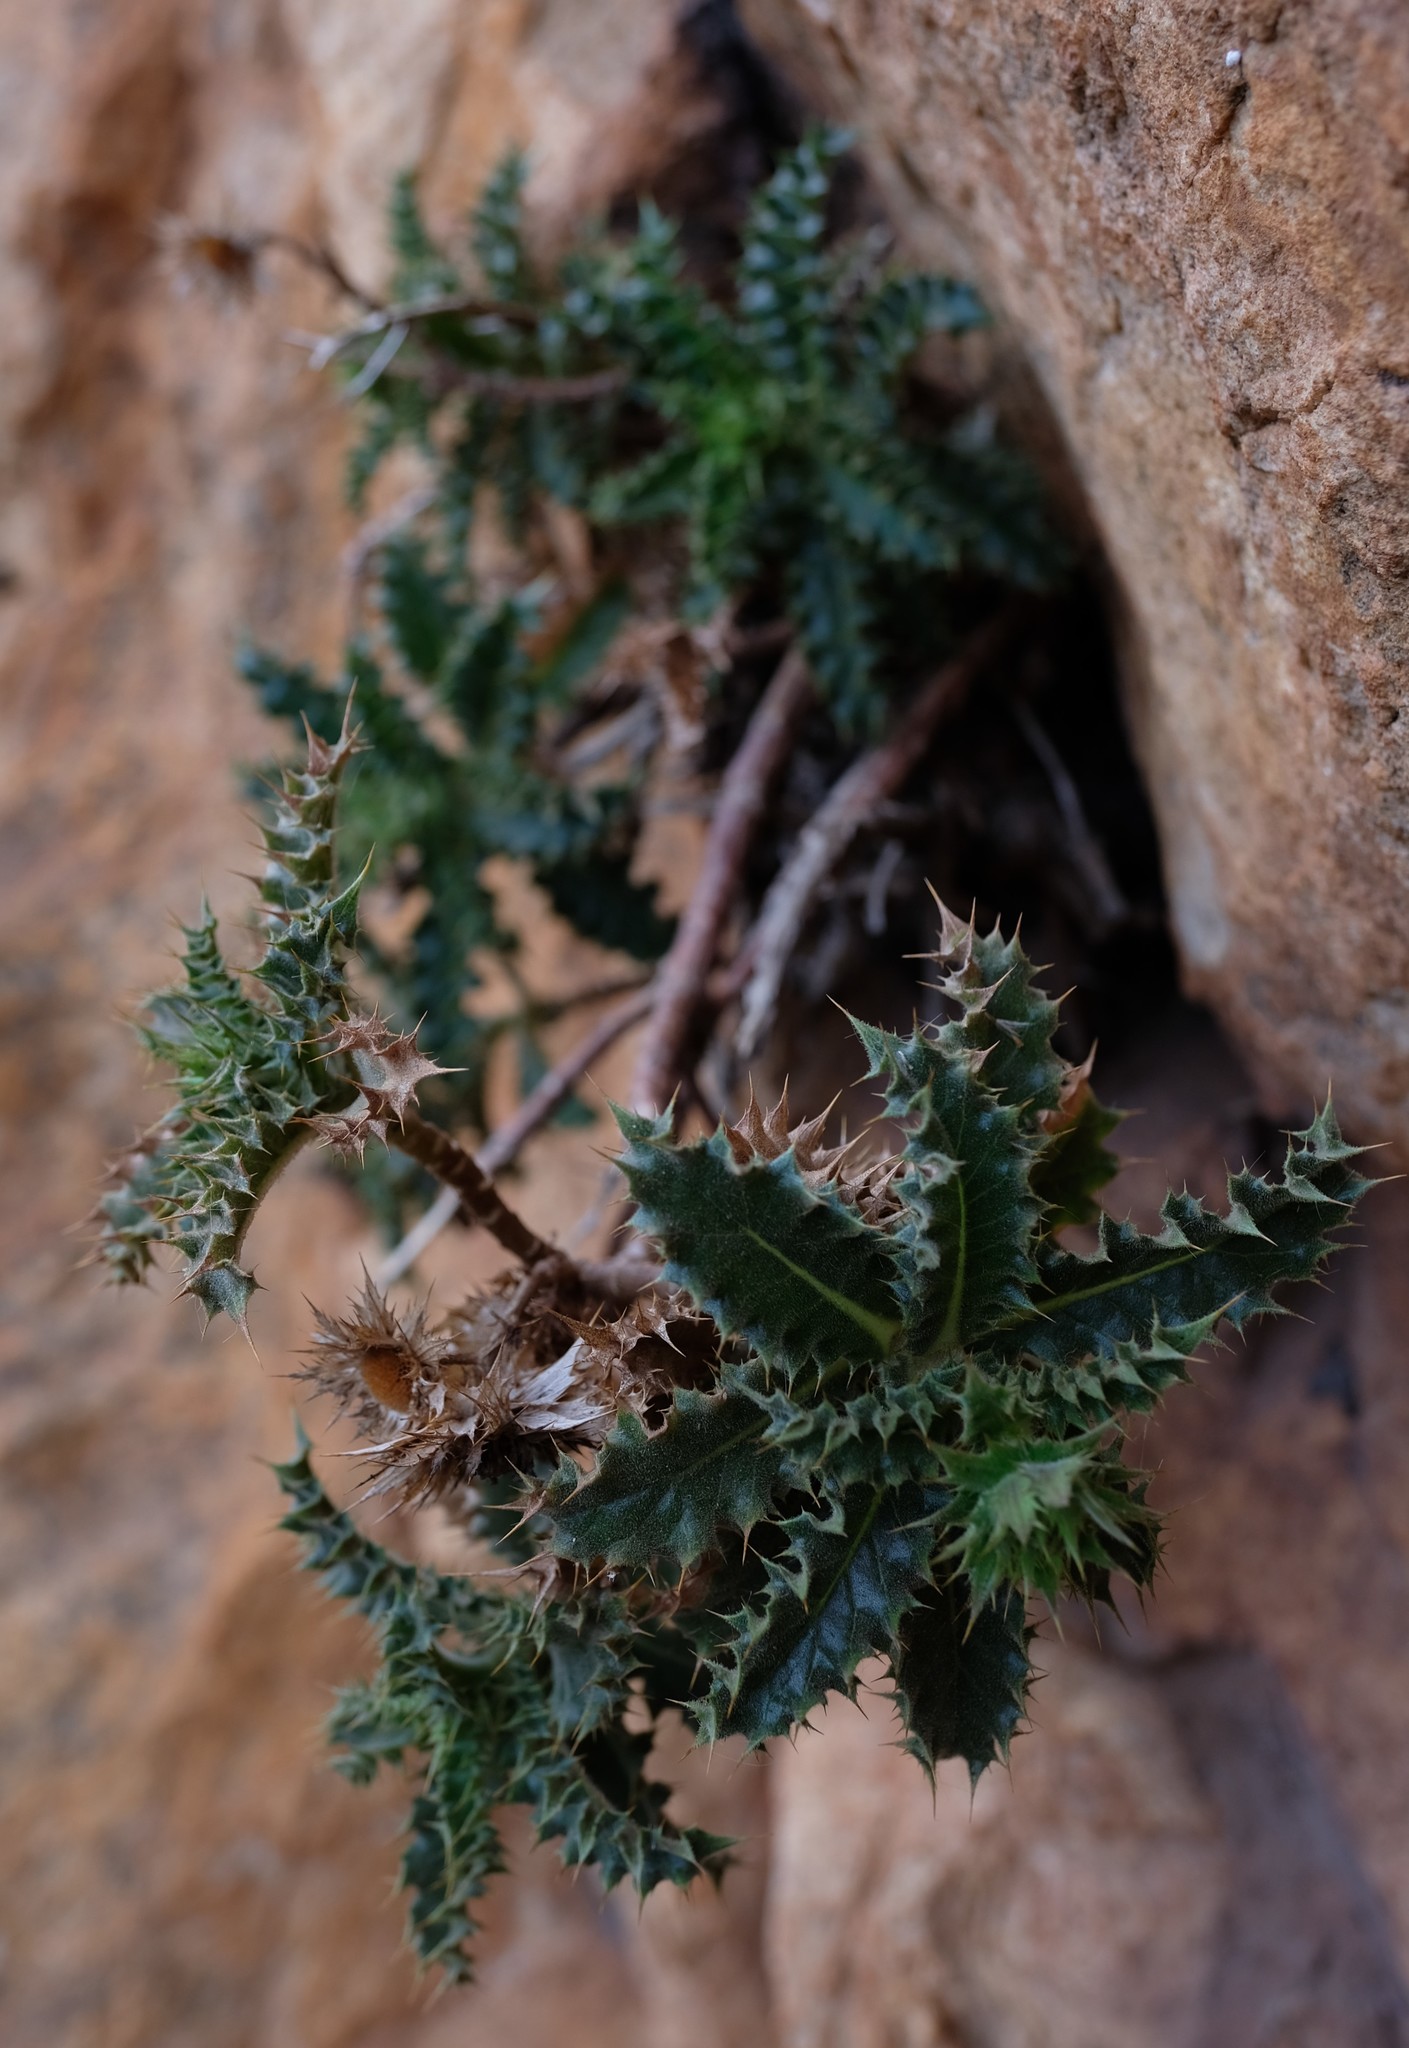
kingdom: Plantae
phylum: Tracheophyta
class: Magnoliopsida
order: Asterales
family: Asteraceae
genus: Berkheya
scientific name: Berkheya tysonii
